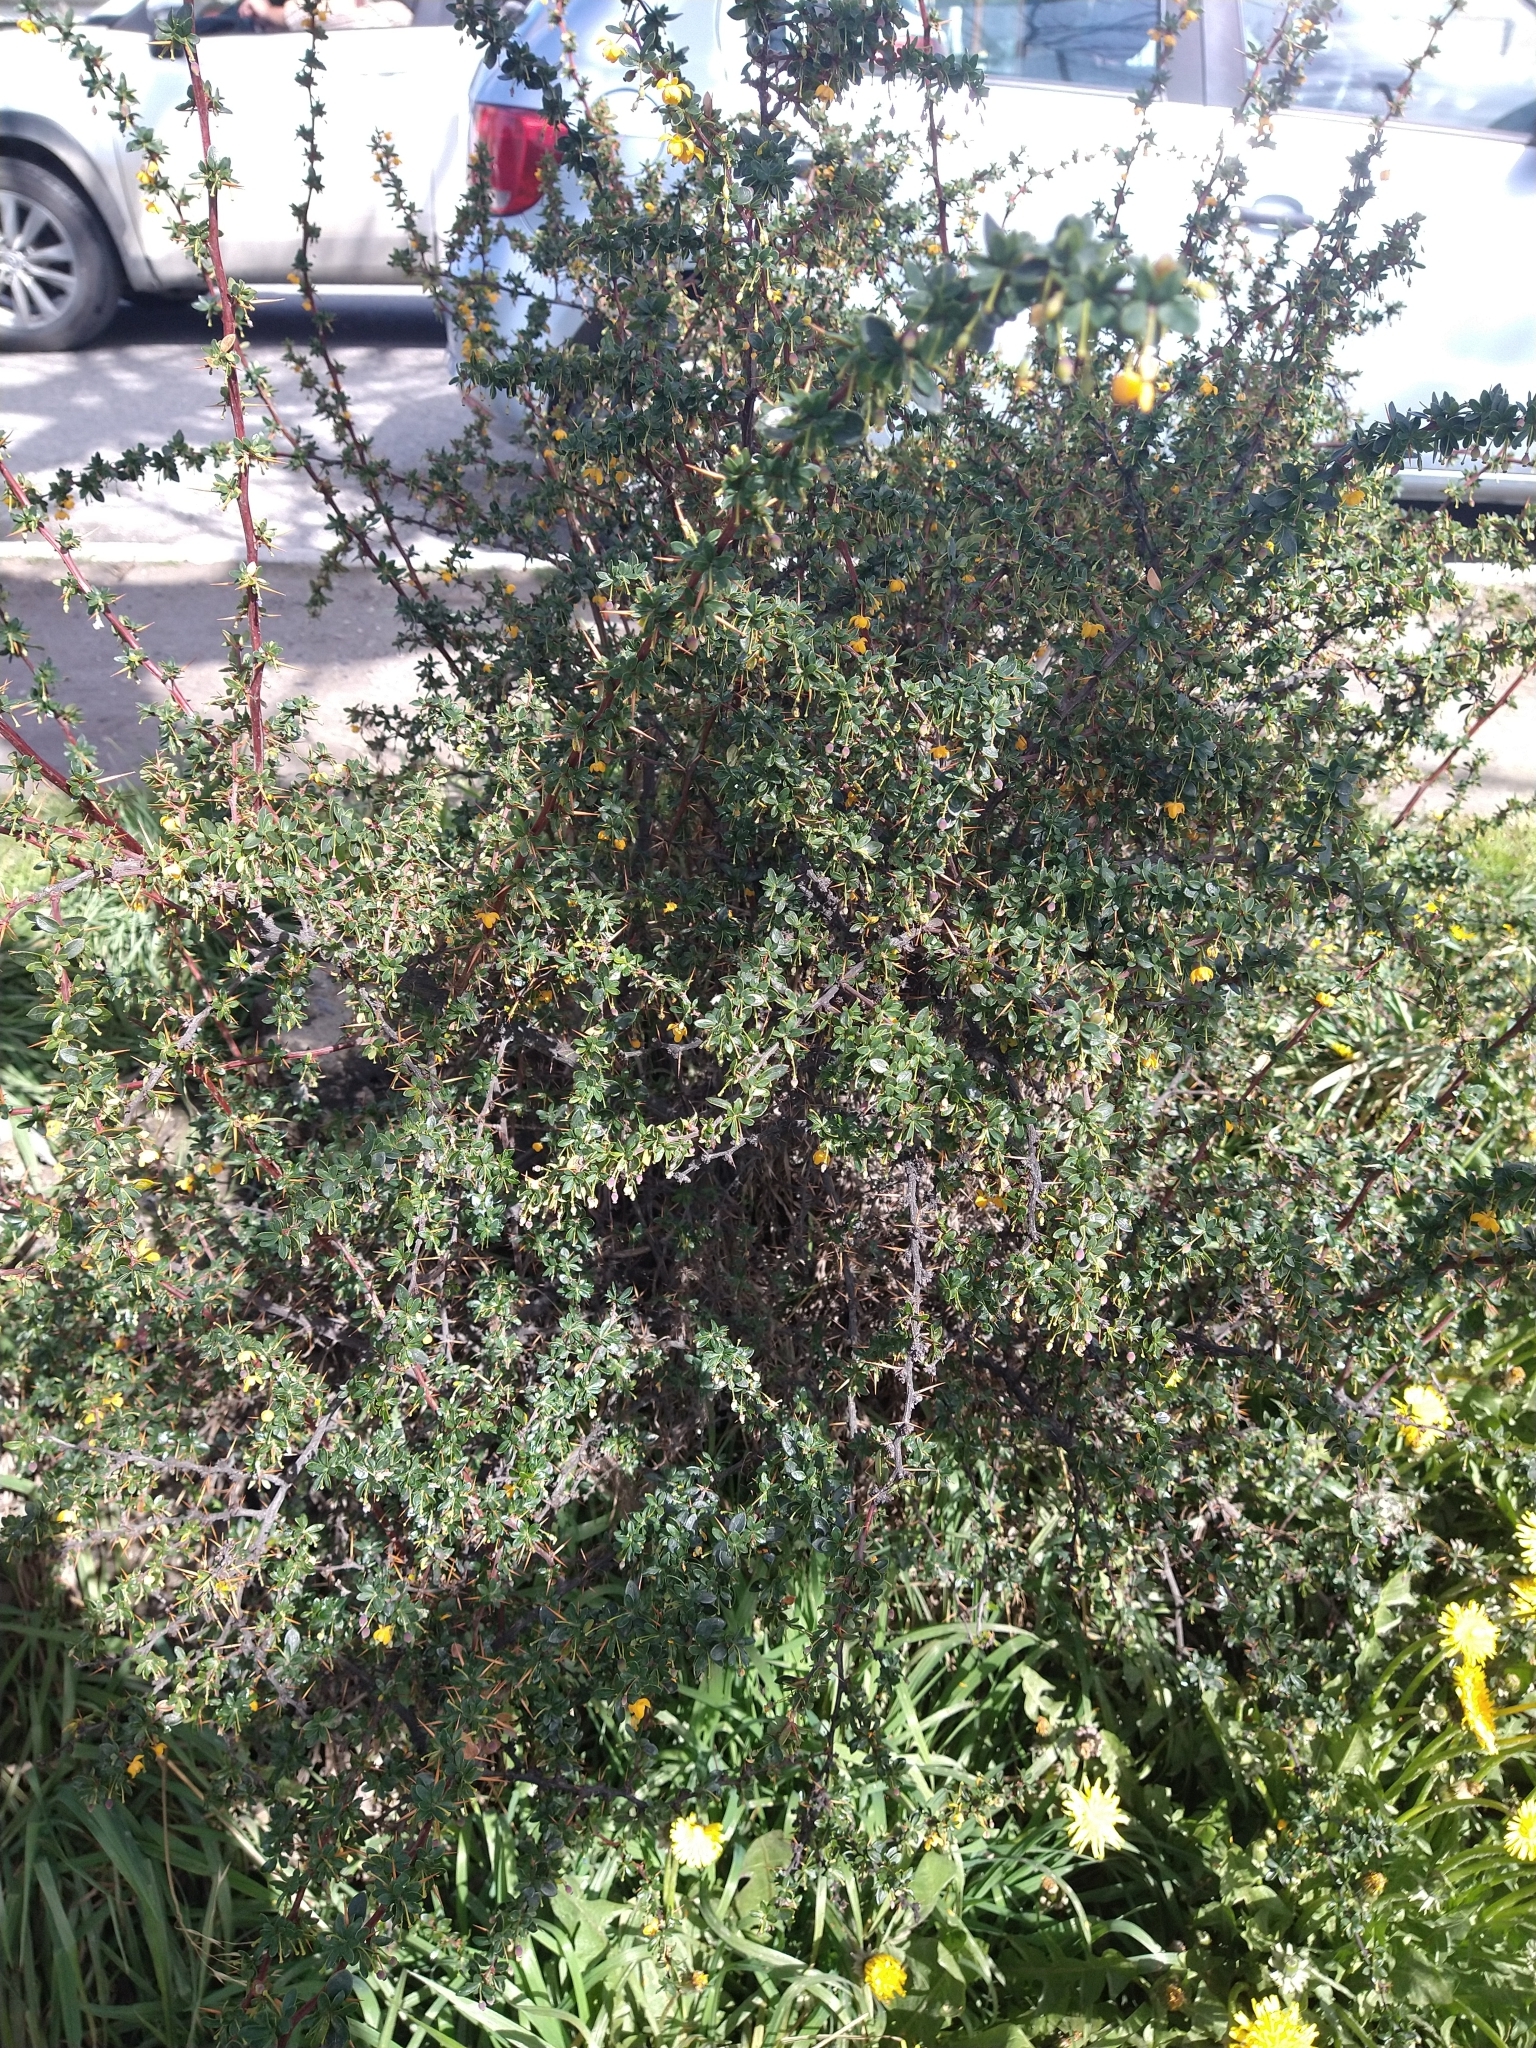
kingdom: Plantae
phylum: Tracheophyta
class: Magnoliopsida
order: Ranunculales
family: Berberidaceae
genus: Berberis
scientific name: Berberis microphylla
